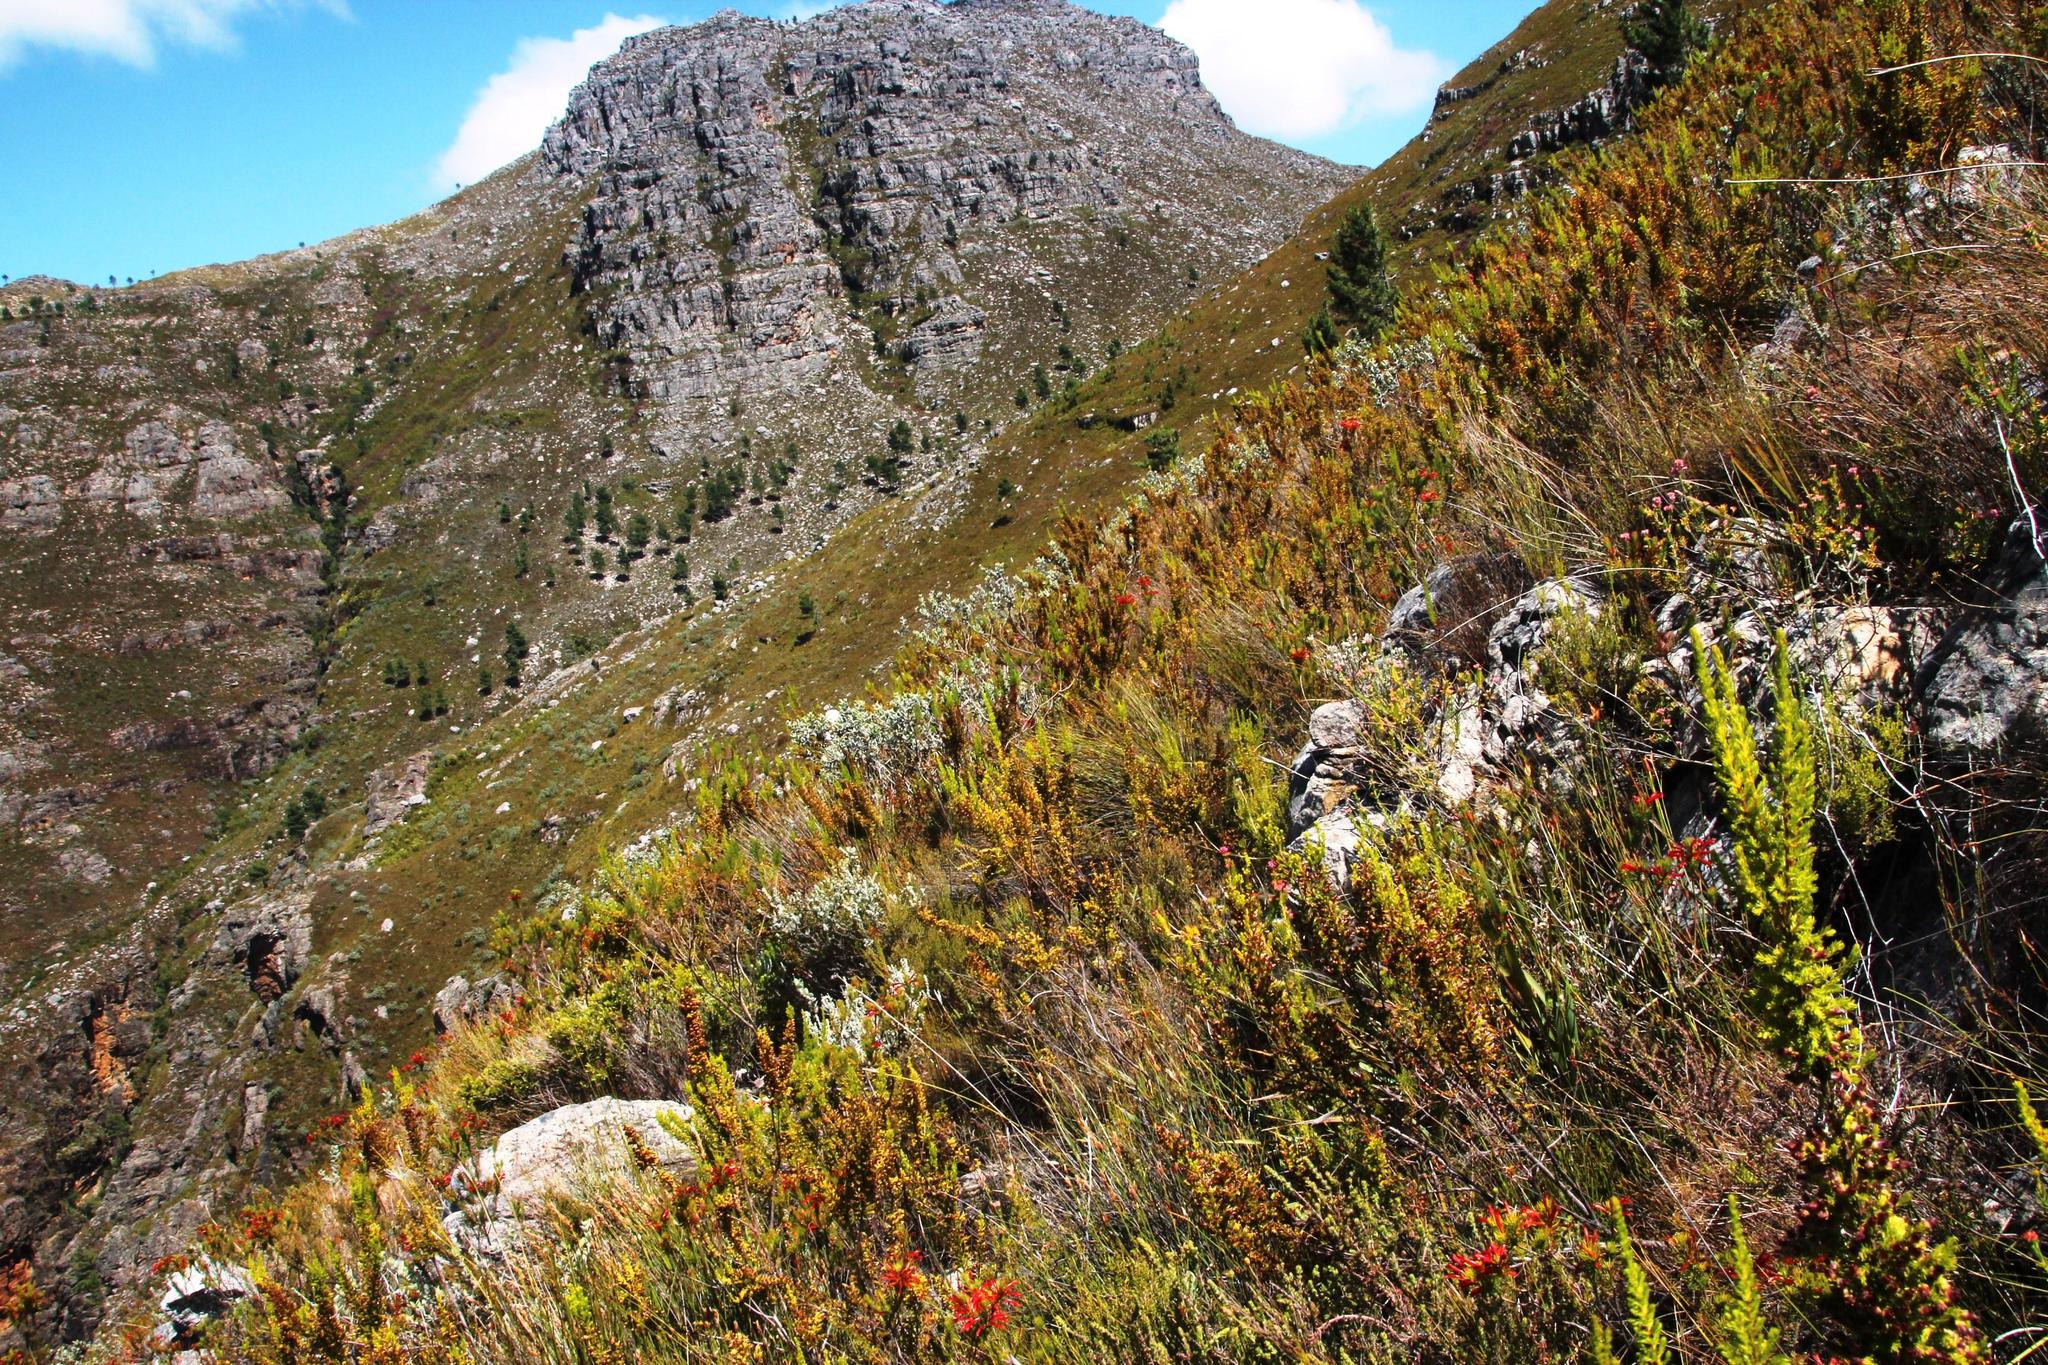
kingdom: Plantae
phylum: Tracheophyta
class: Magnoliopsida
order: Ericales
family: Ericaceae
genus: Erica
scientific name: Erica blandfordia
